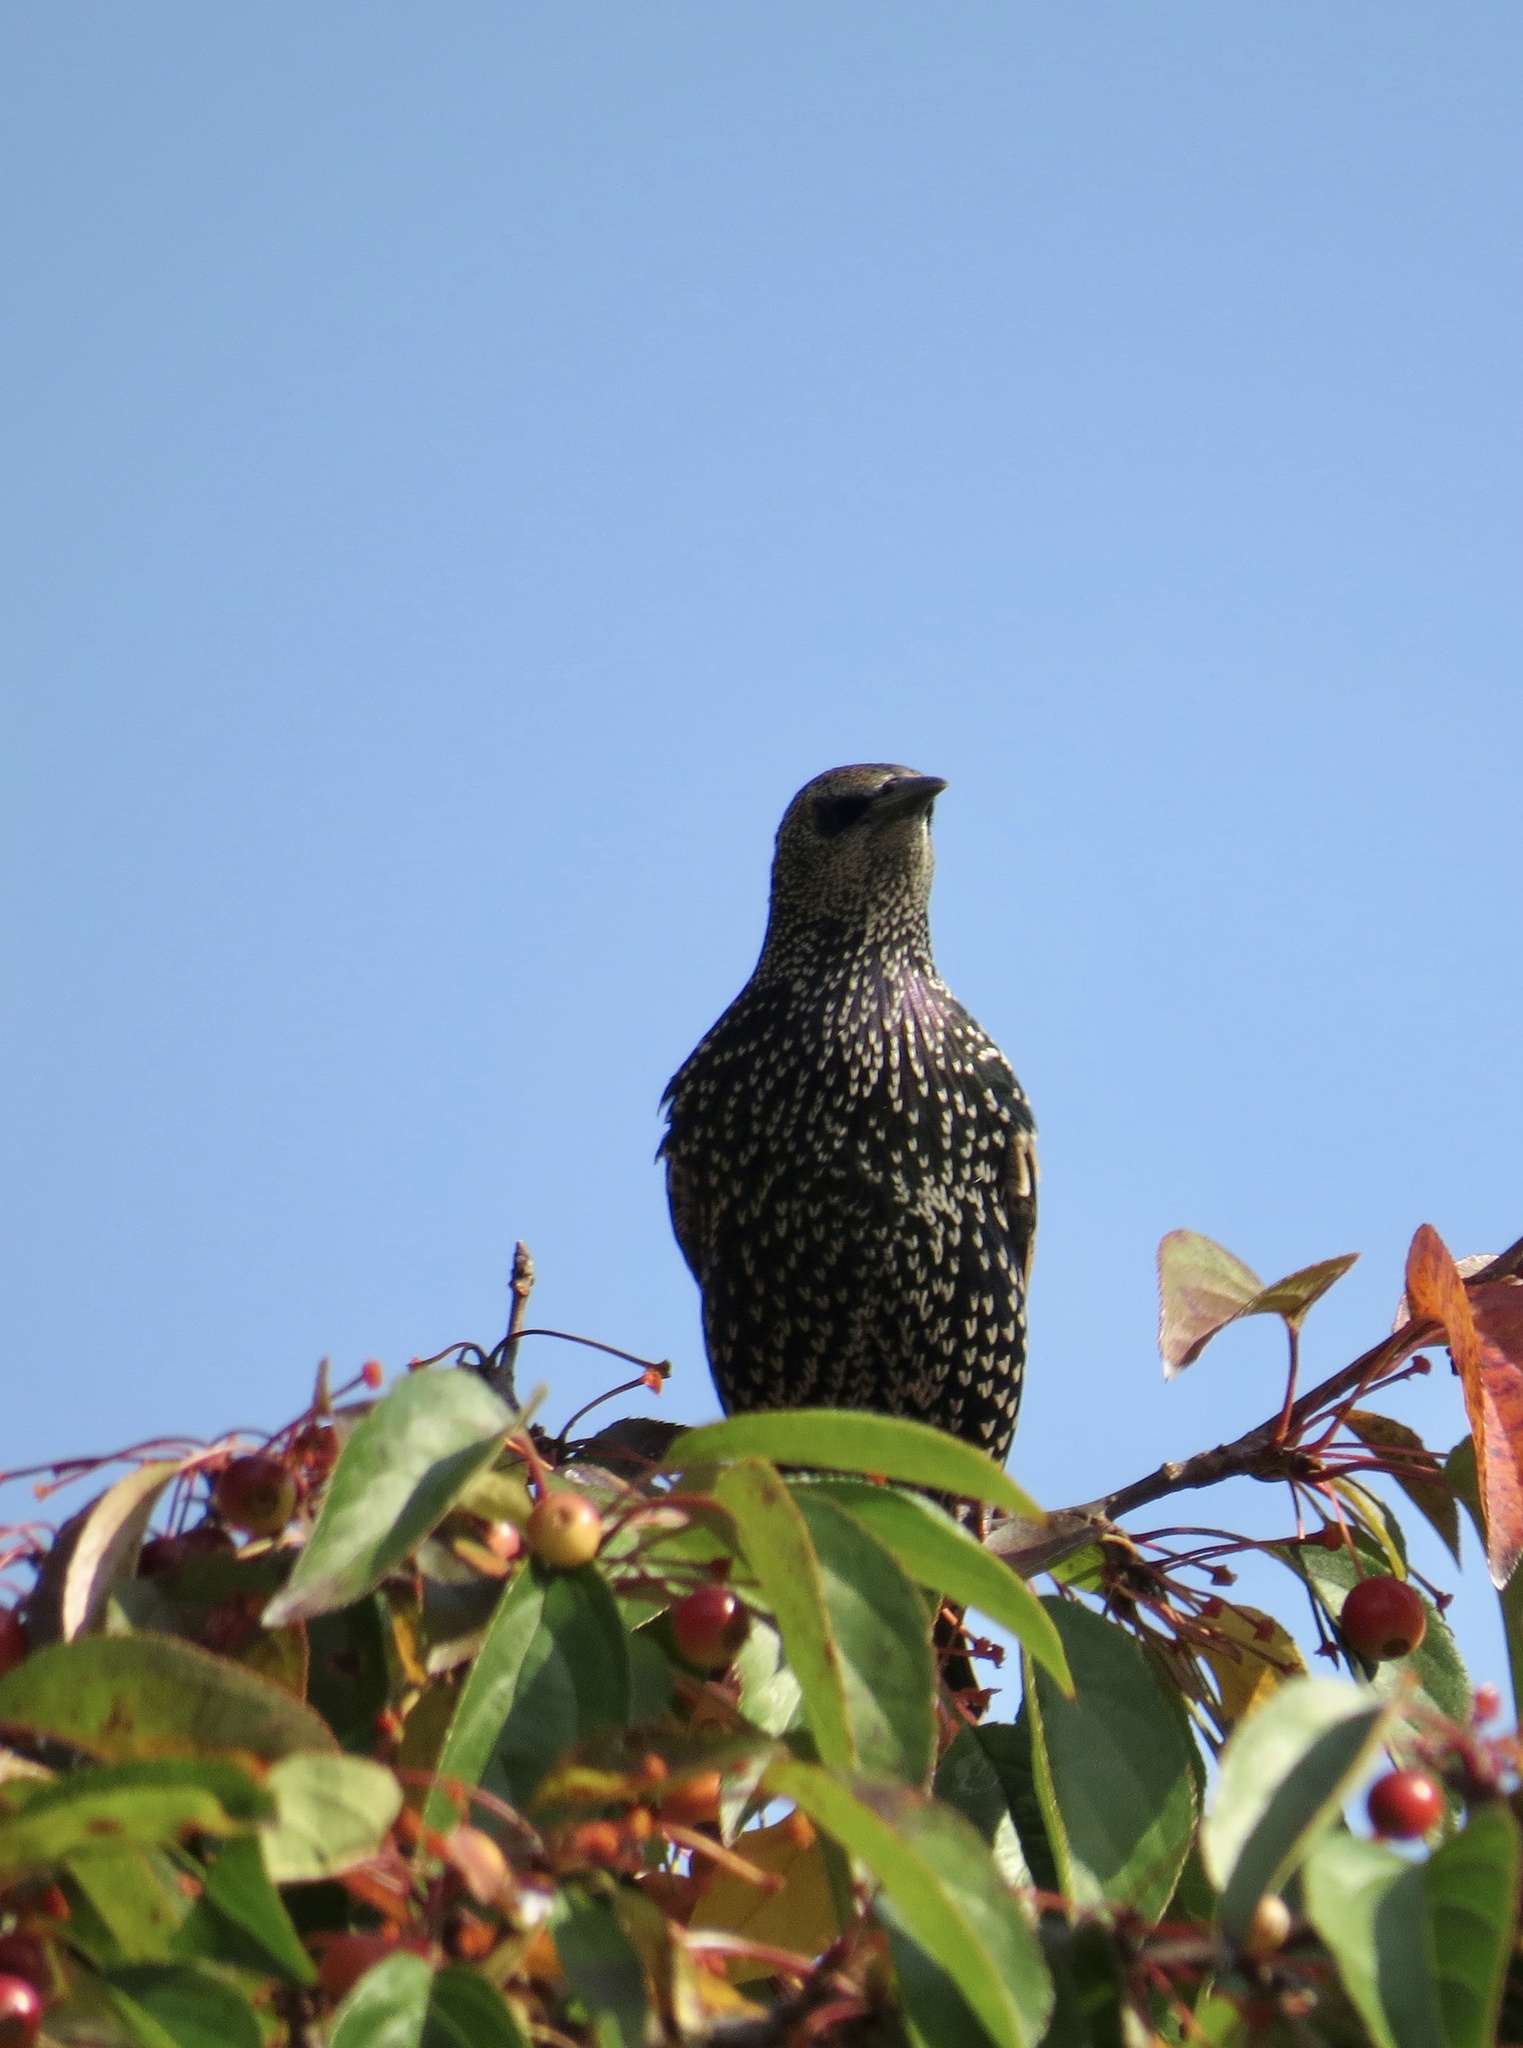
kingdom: Animalia
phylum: Chordata
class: Aves
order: Passeriformes
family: Sturnidae
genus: Sturnus
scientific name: Sturnus vulgaris
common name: Common starling
